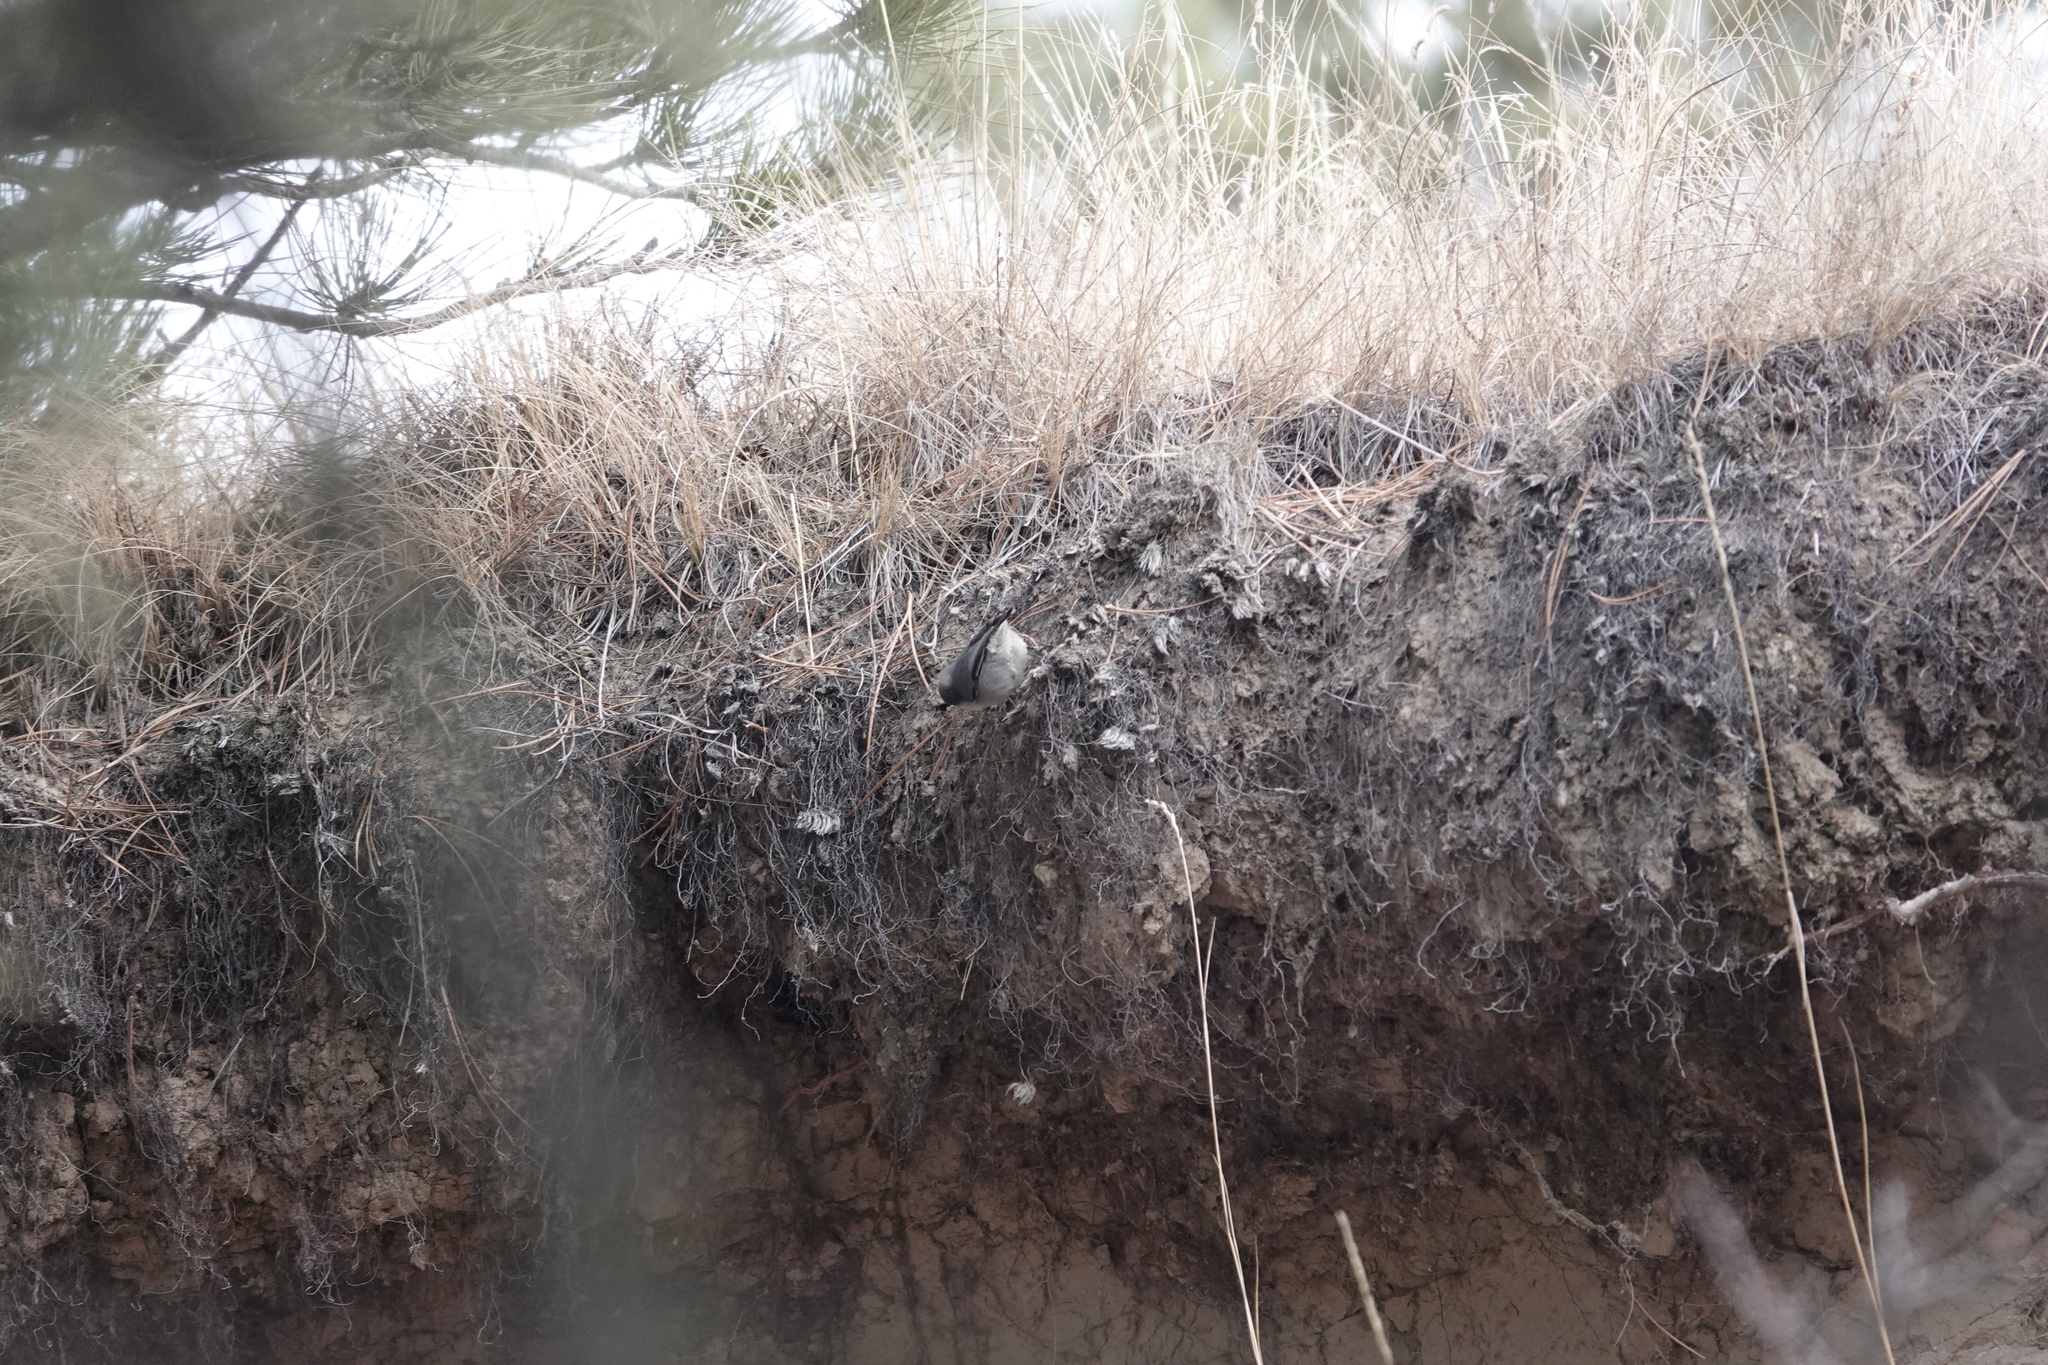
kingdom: Animalia
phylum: Chordata
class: Aves
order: Passeriformes
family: Sittidae
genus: Sitta
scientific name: Sitta pygmaea
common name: Pygmy nuthatch
